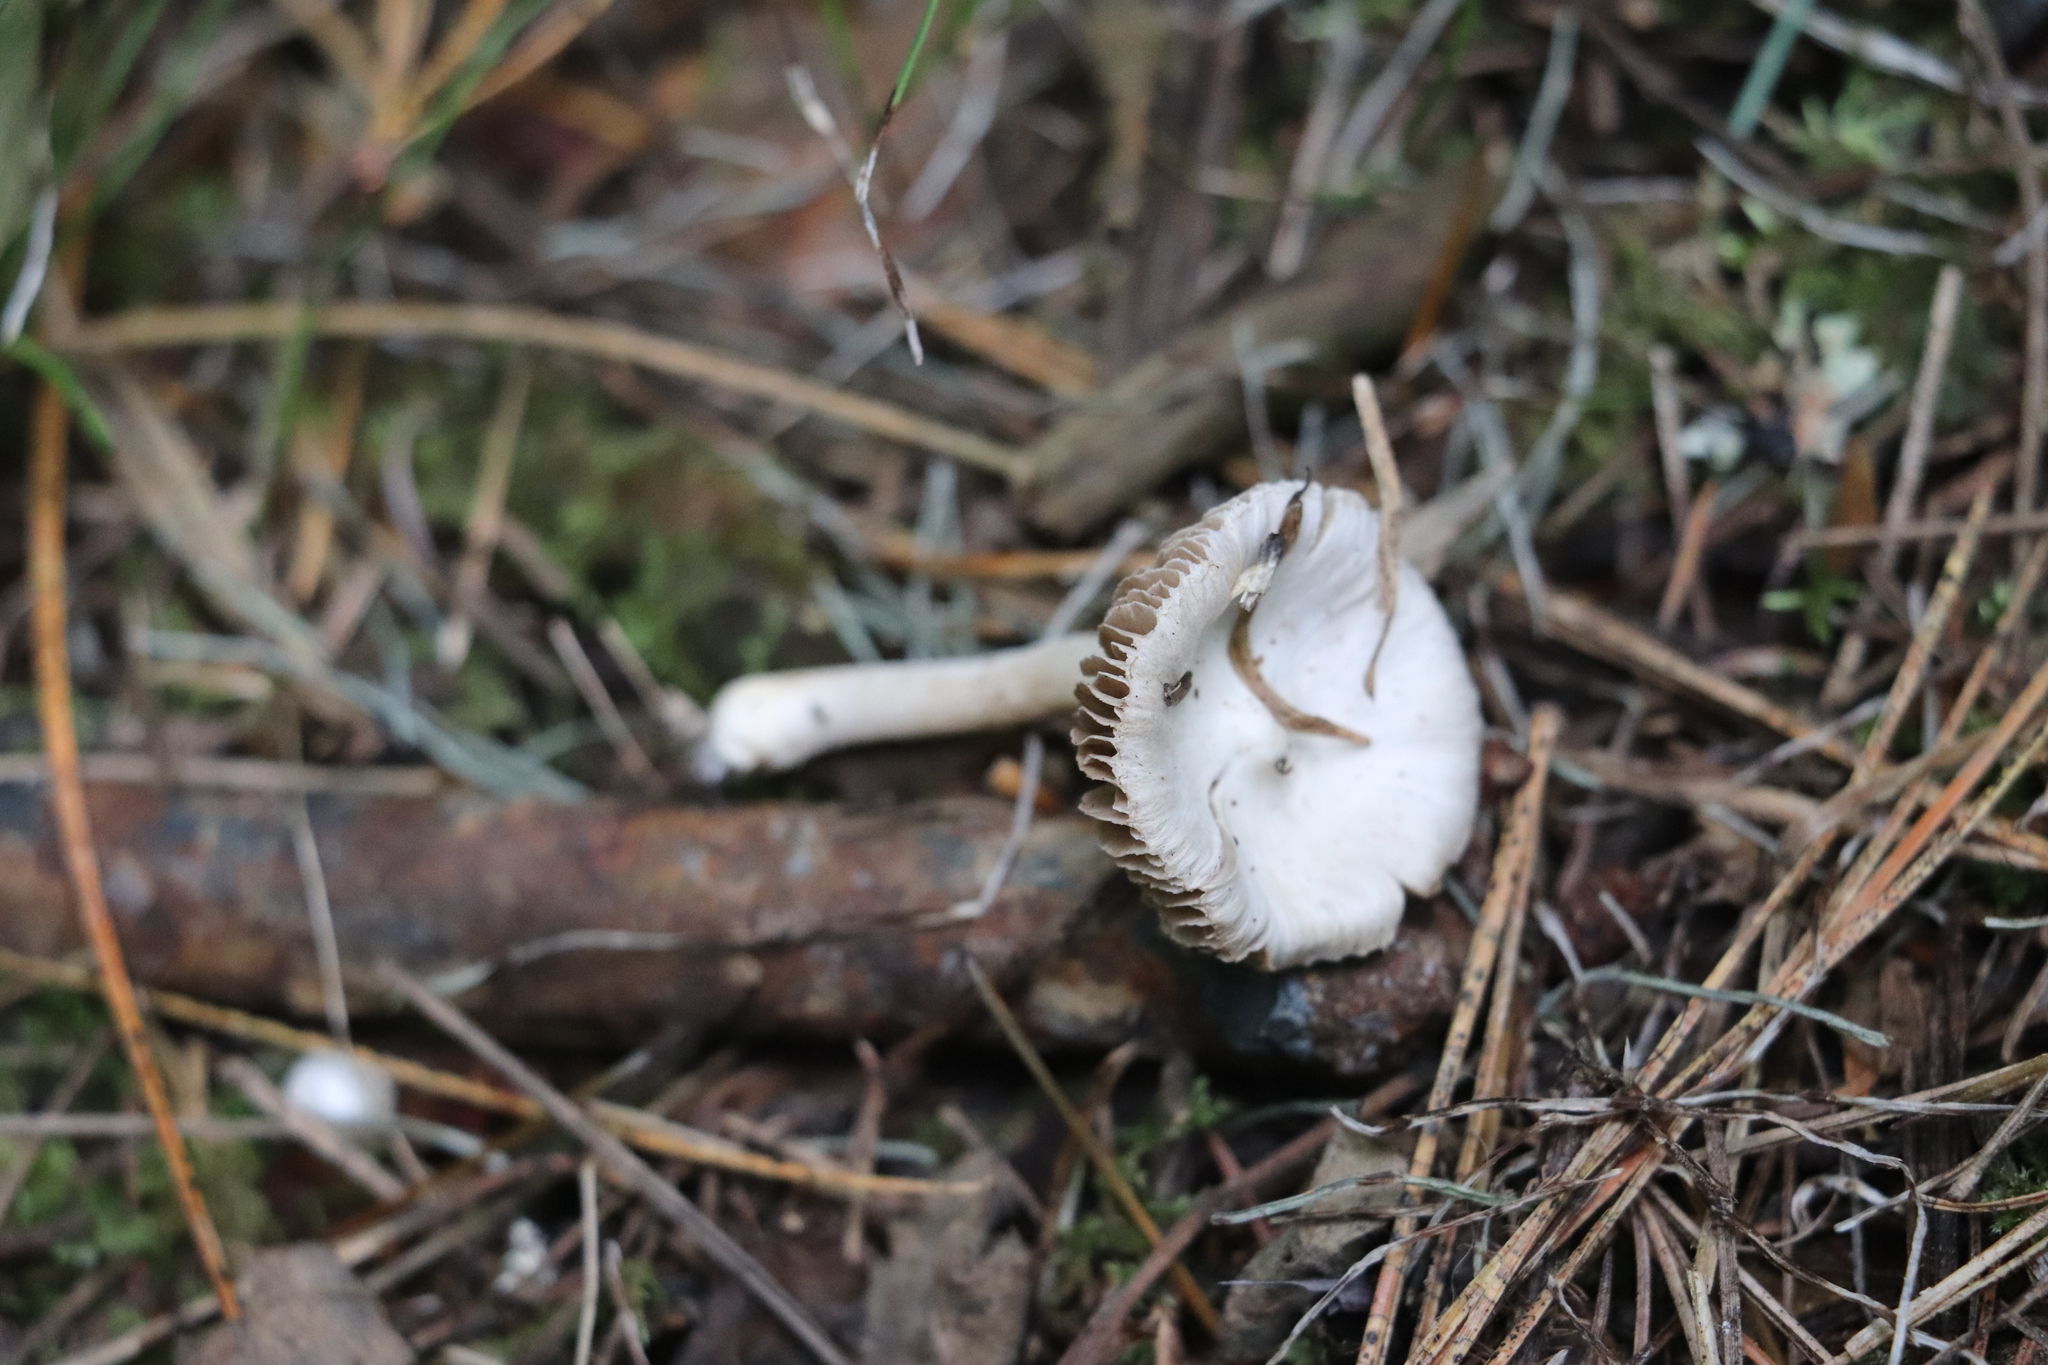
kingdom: Fungi
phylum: Basidiomycota
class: Agaricomycetes
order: Agaricales
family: Inocybaceae
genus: Inocybe
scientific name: Inocybe geophylla
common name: White fibrecap
